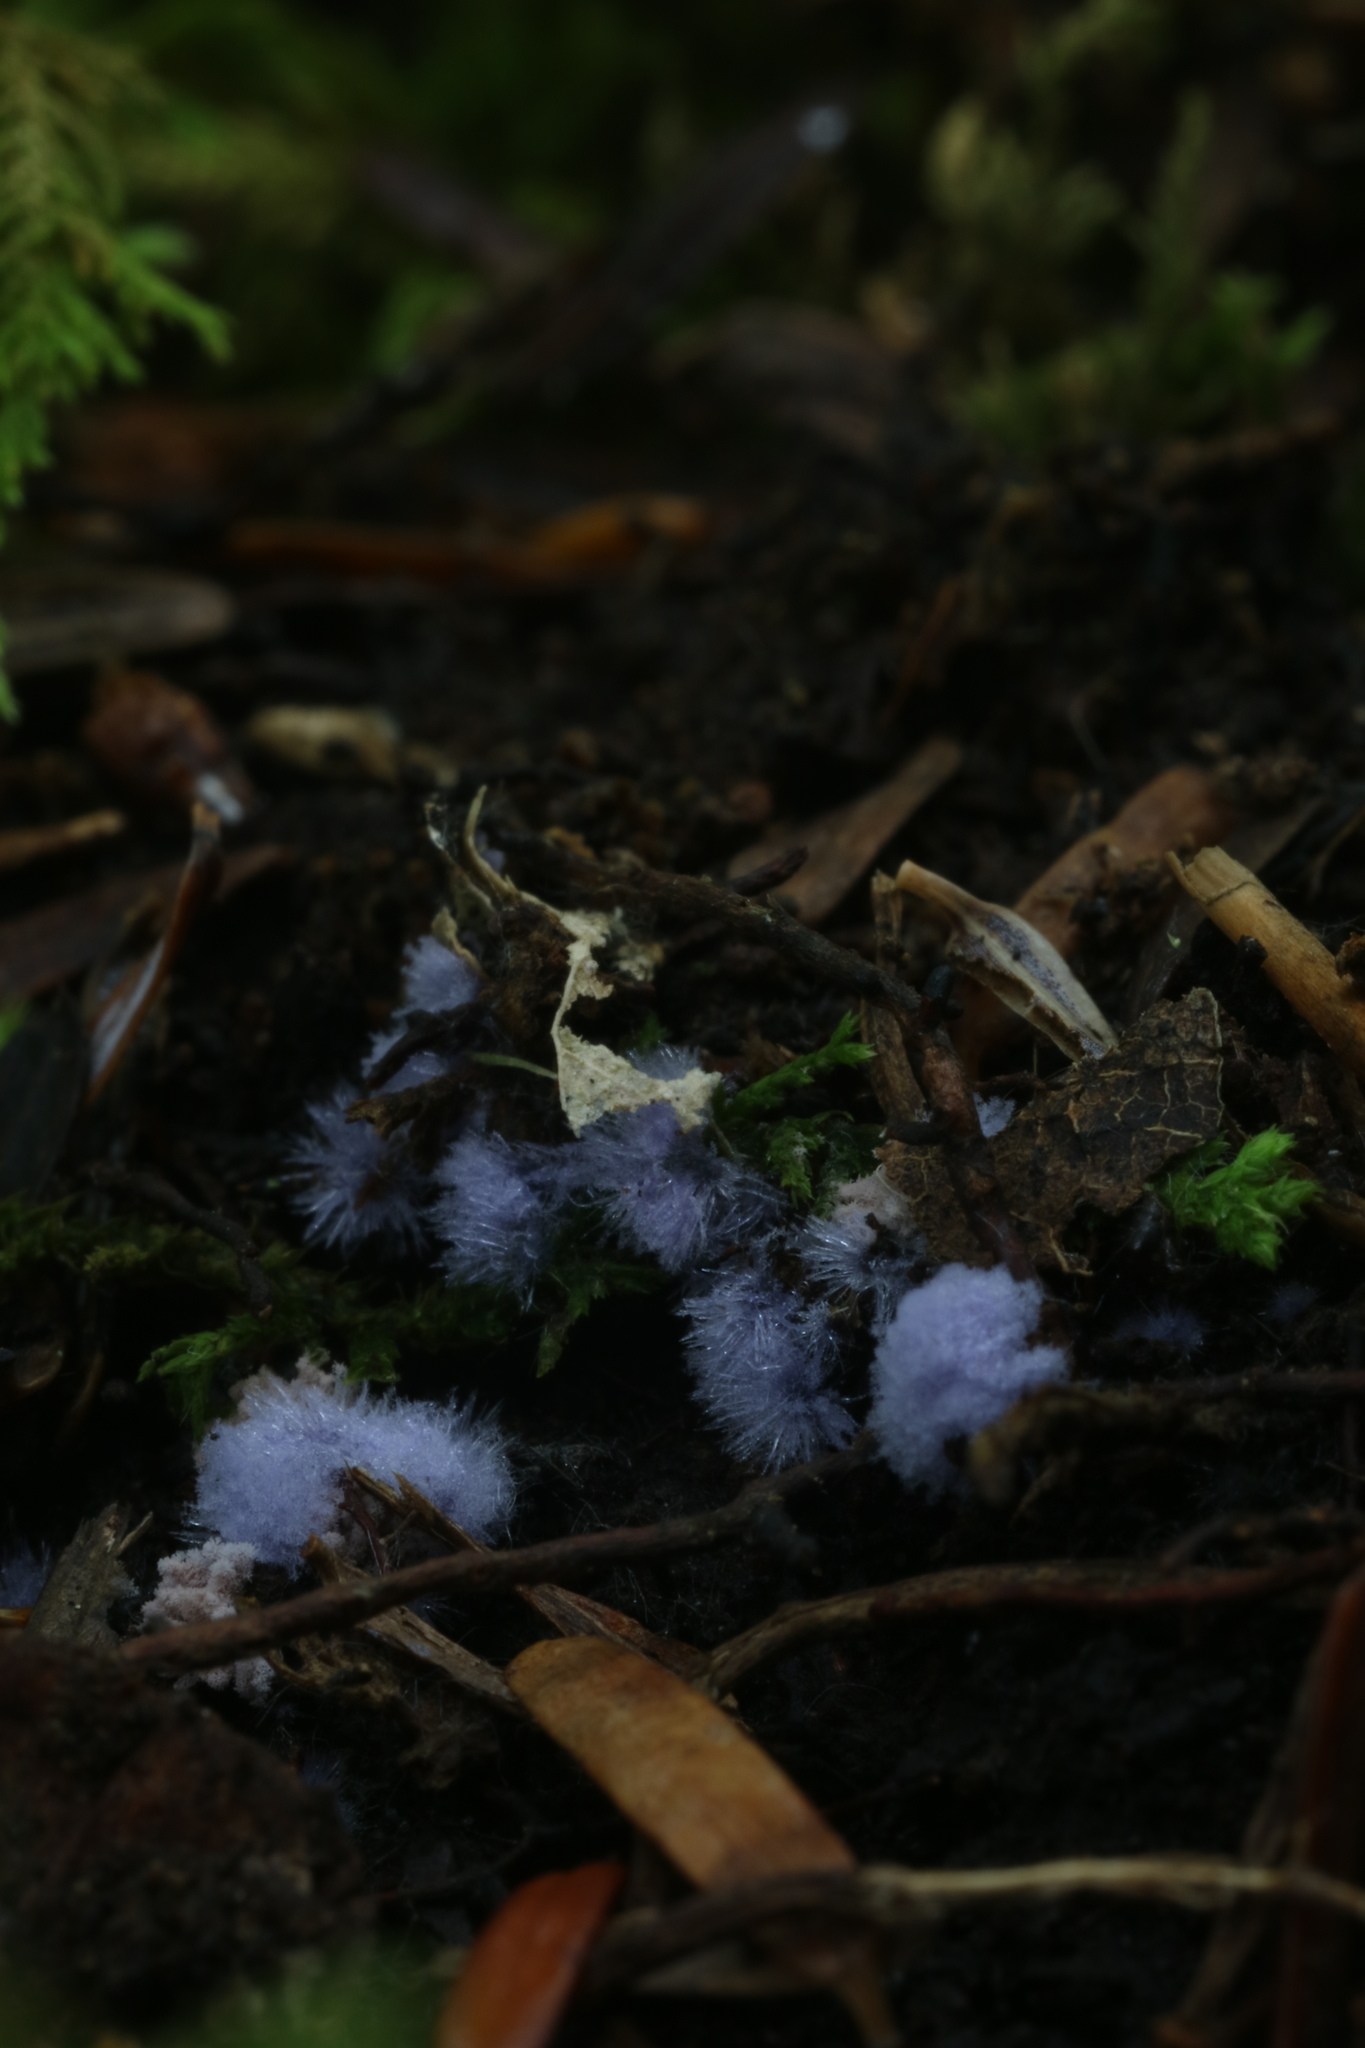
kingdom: Fungi
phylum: Ascomycota
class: Pezizomycetes
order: Pezizales
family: Pezizaceae
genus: Chromelosporiopsis
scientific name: Chromelosporiopsis coerulescens
